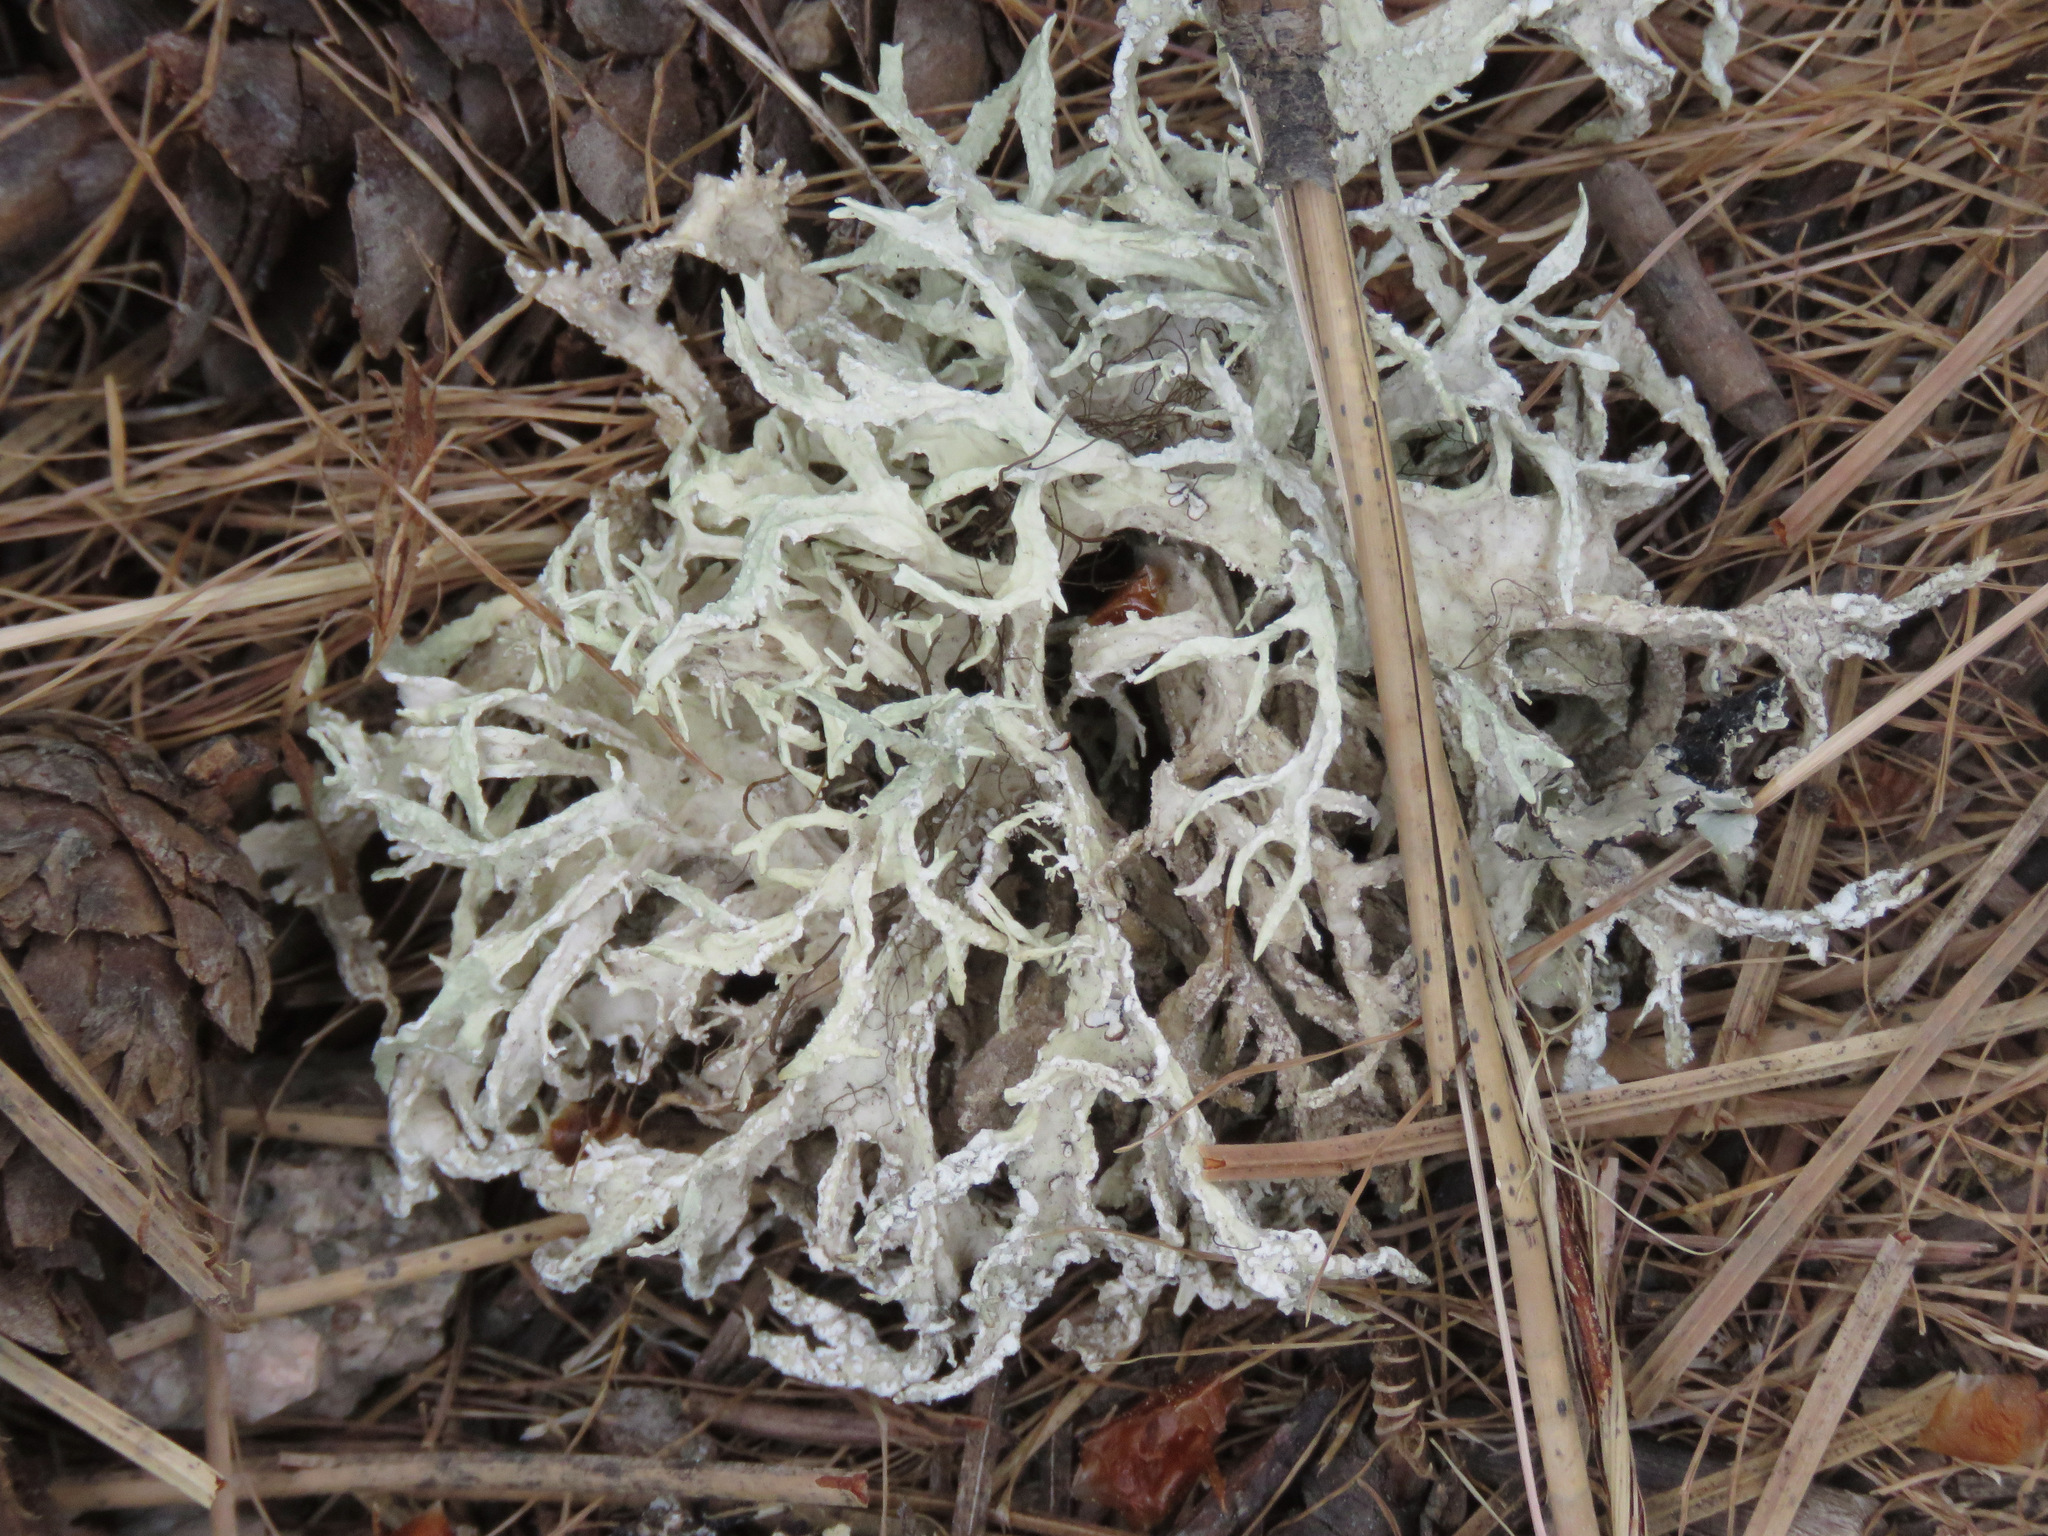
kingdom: Fungi
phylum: Ascomycota
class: Lecanoromycetes
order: Lecanorales
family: Parmeliaceae
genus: Evernia
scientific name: Evernia prunastri
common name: Oak moss
